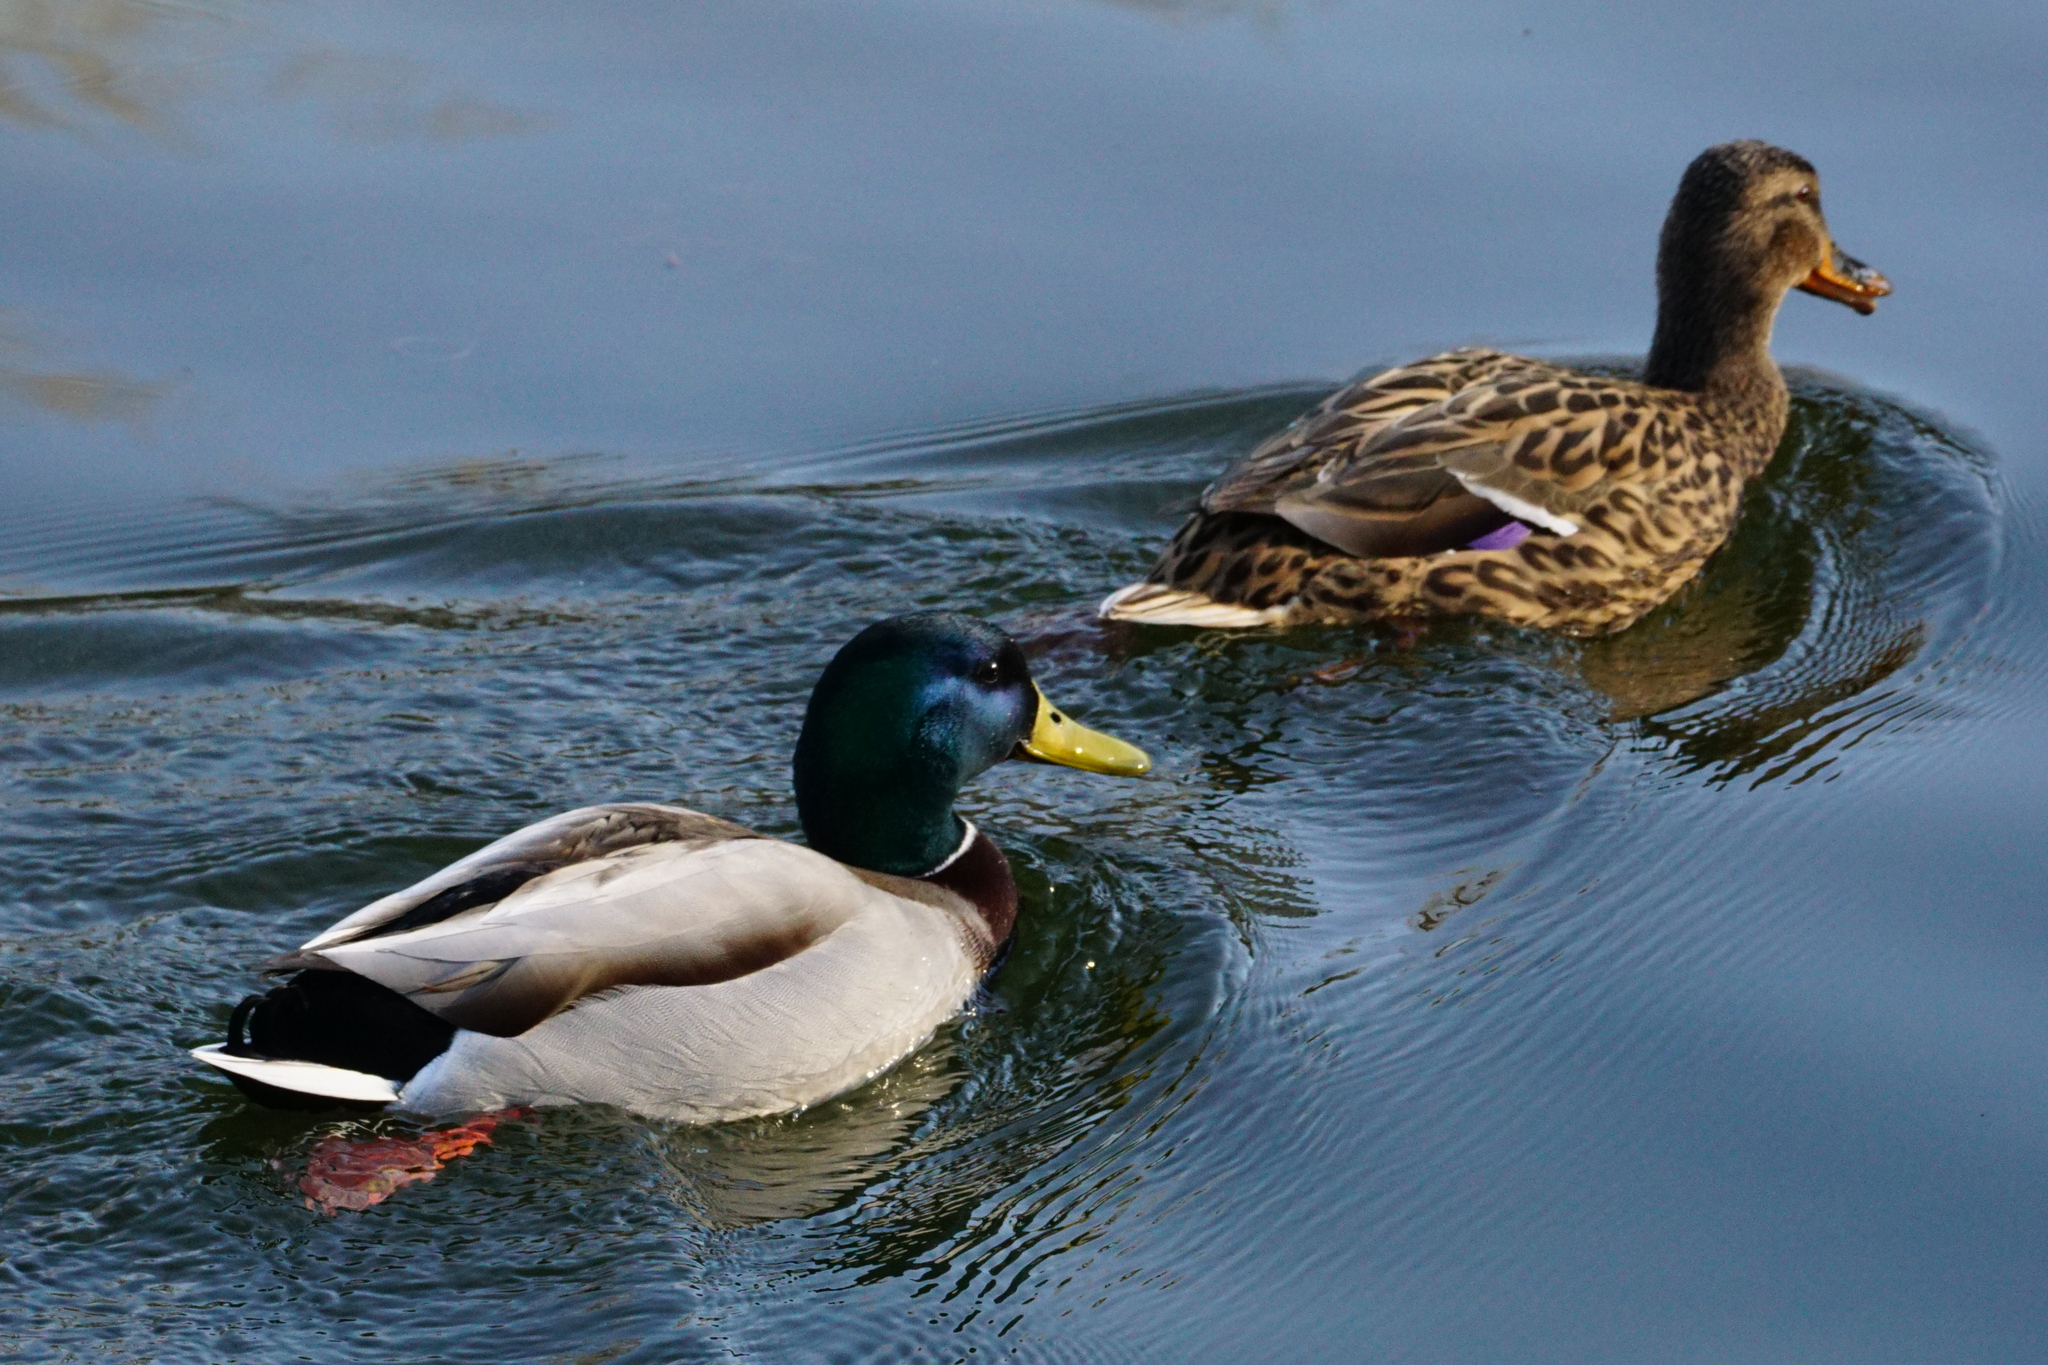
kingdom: Animalia
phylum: Chordata
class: Aves
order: Anseriformes
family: Anatidae
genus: Anas
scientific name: Anas platyrhynchos
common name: Mallard
